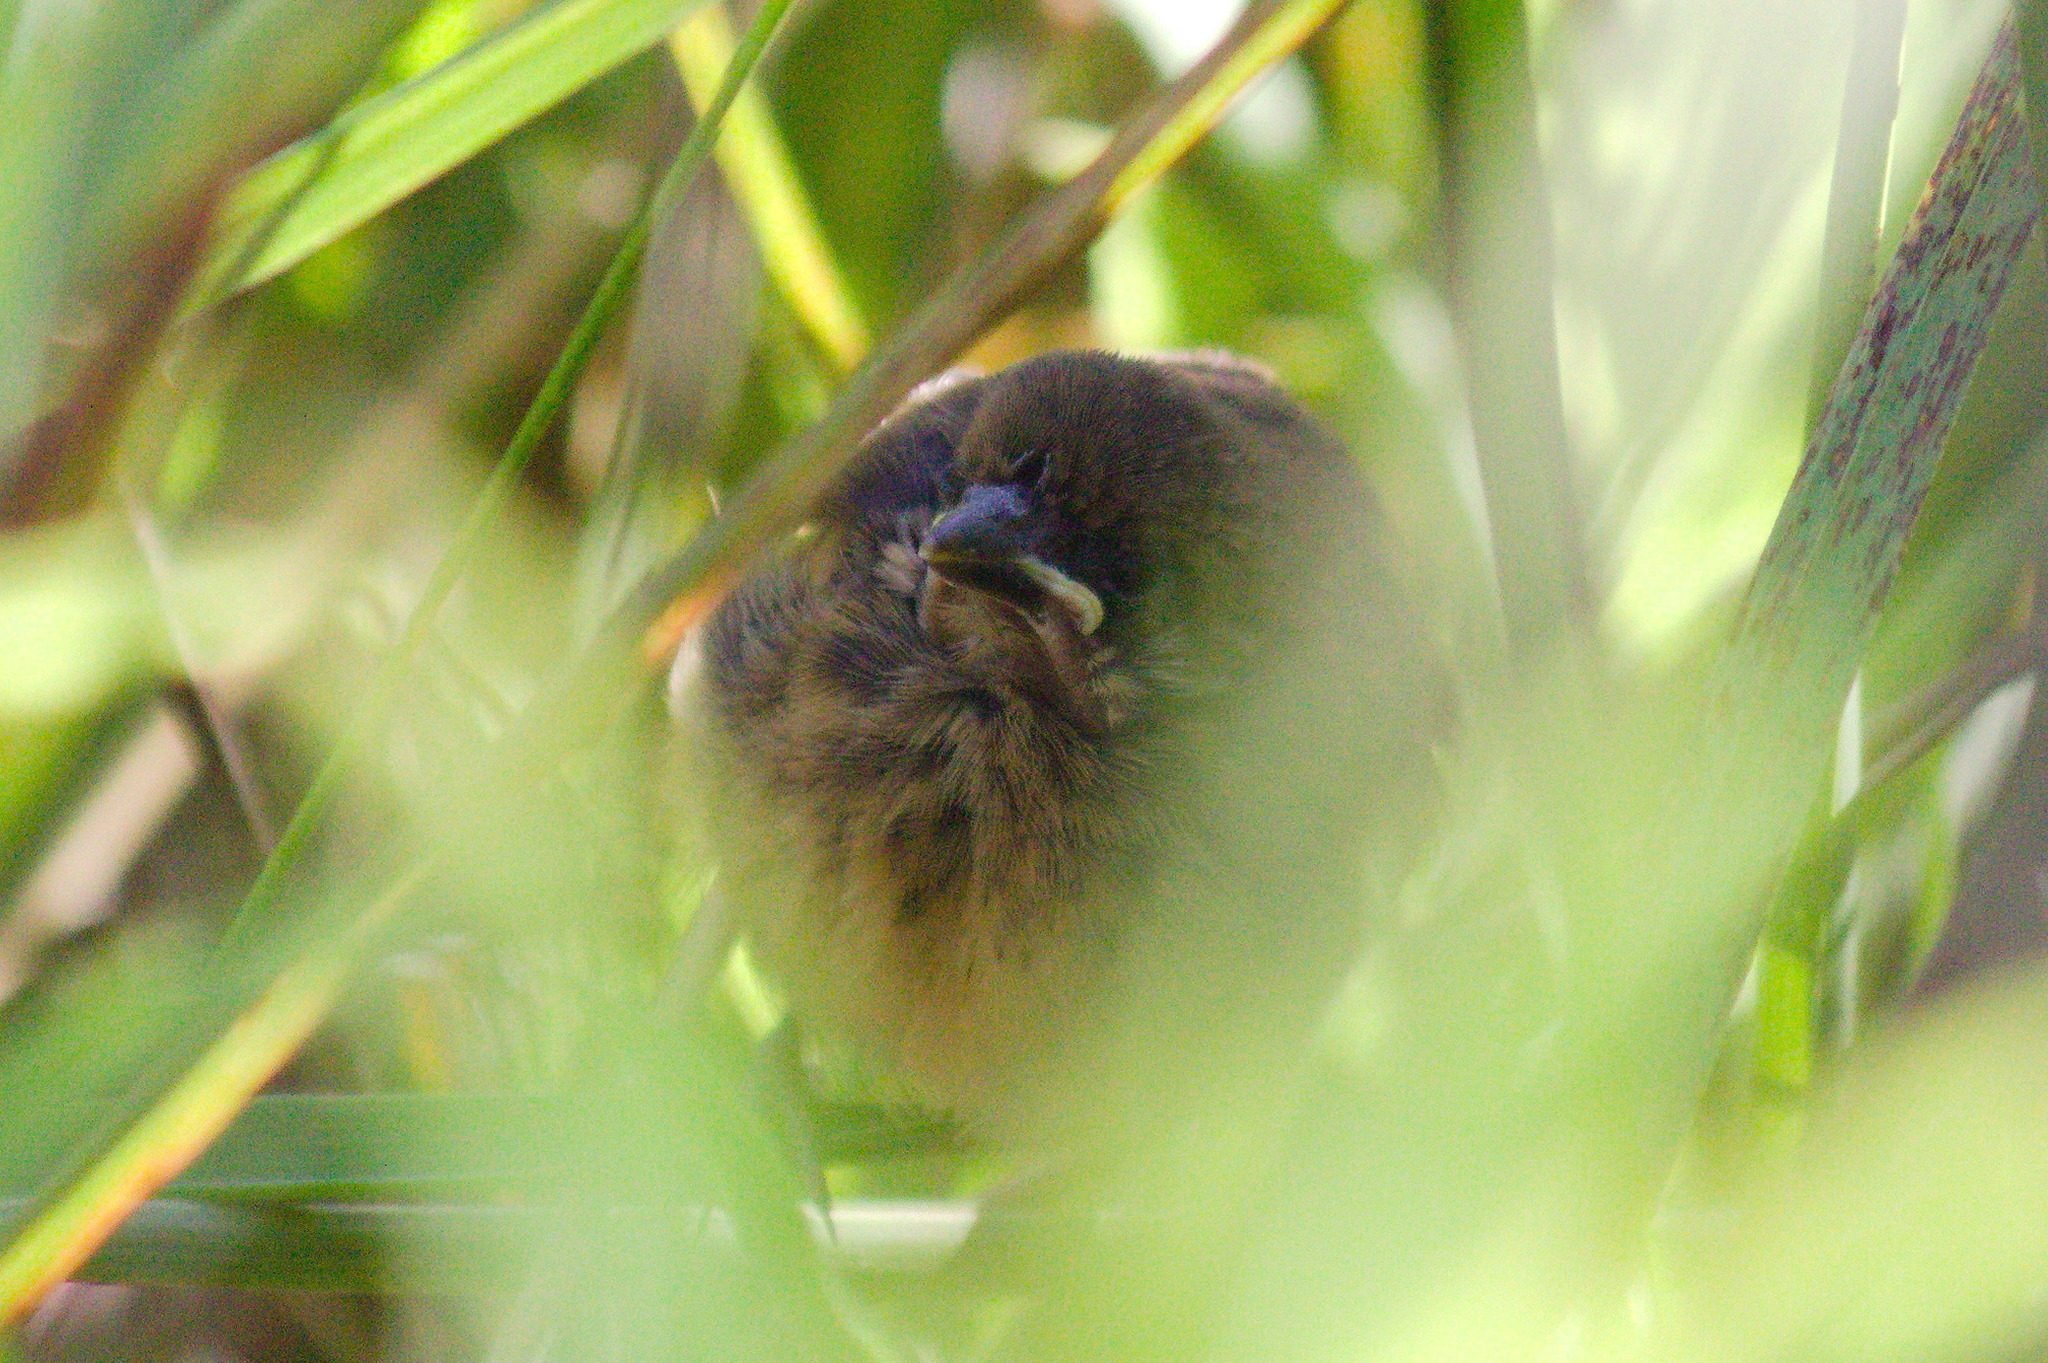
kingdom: Animalia
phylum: Chordata
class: Aves
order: Passeriformes
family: Icteridae
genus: Chrysomus
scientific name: Chrysomus ruficapillus
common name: Chestnut-capped blackbird
